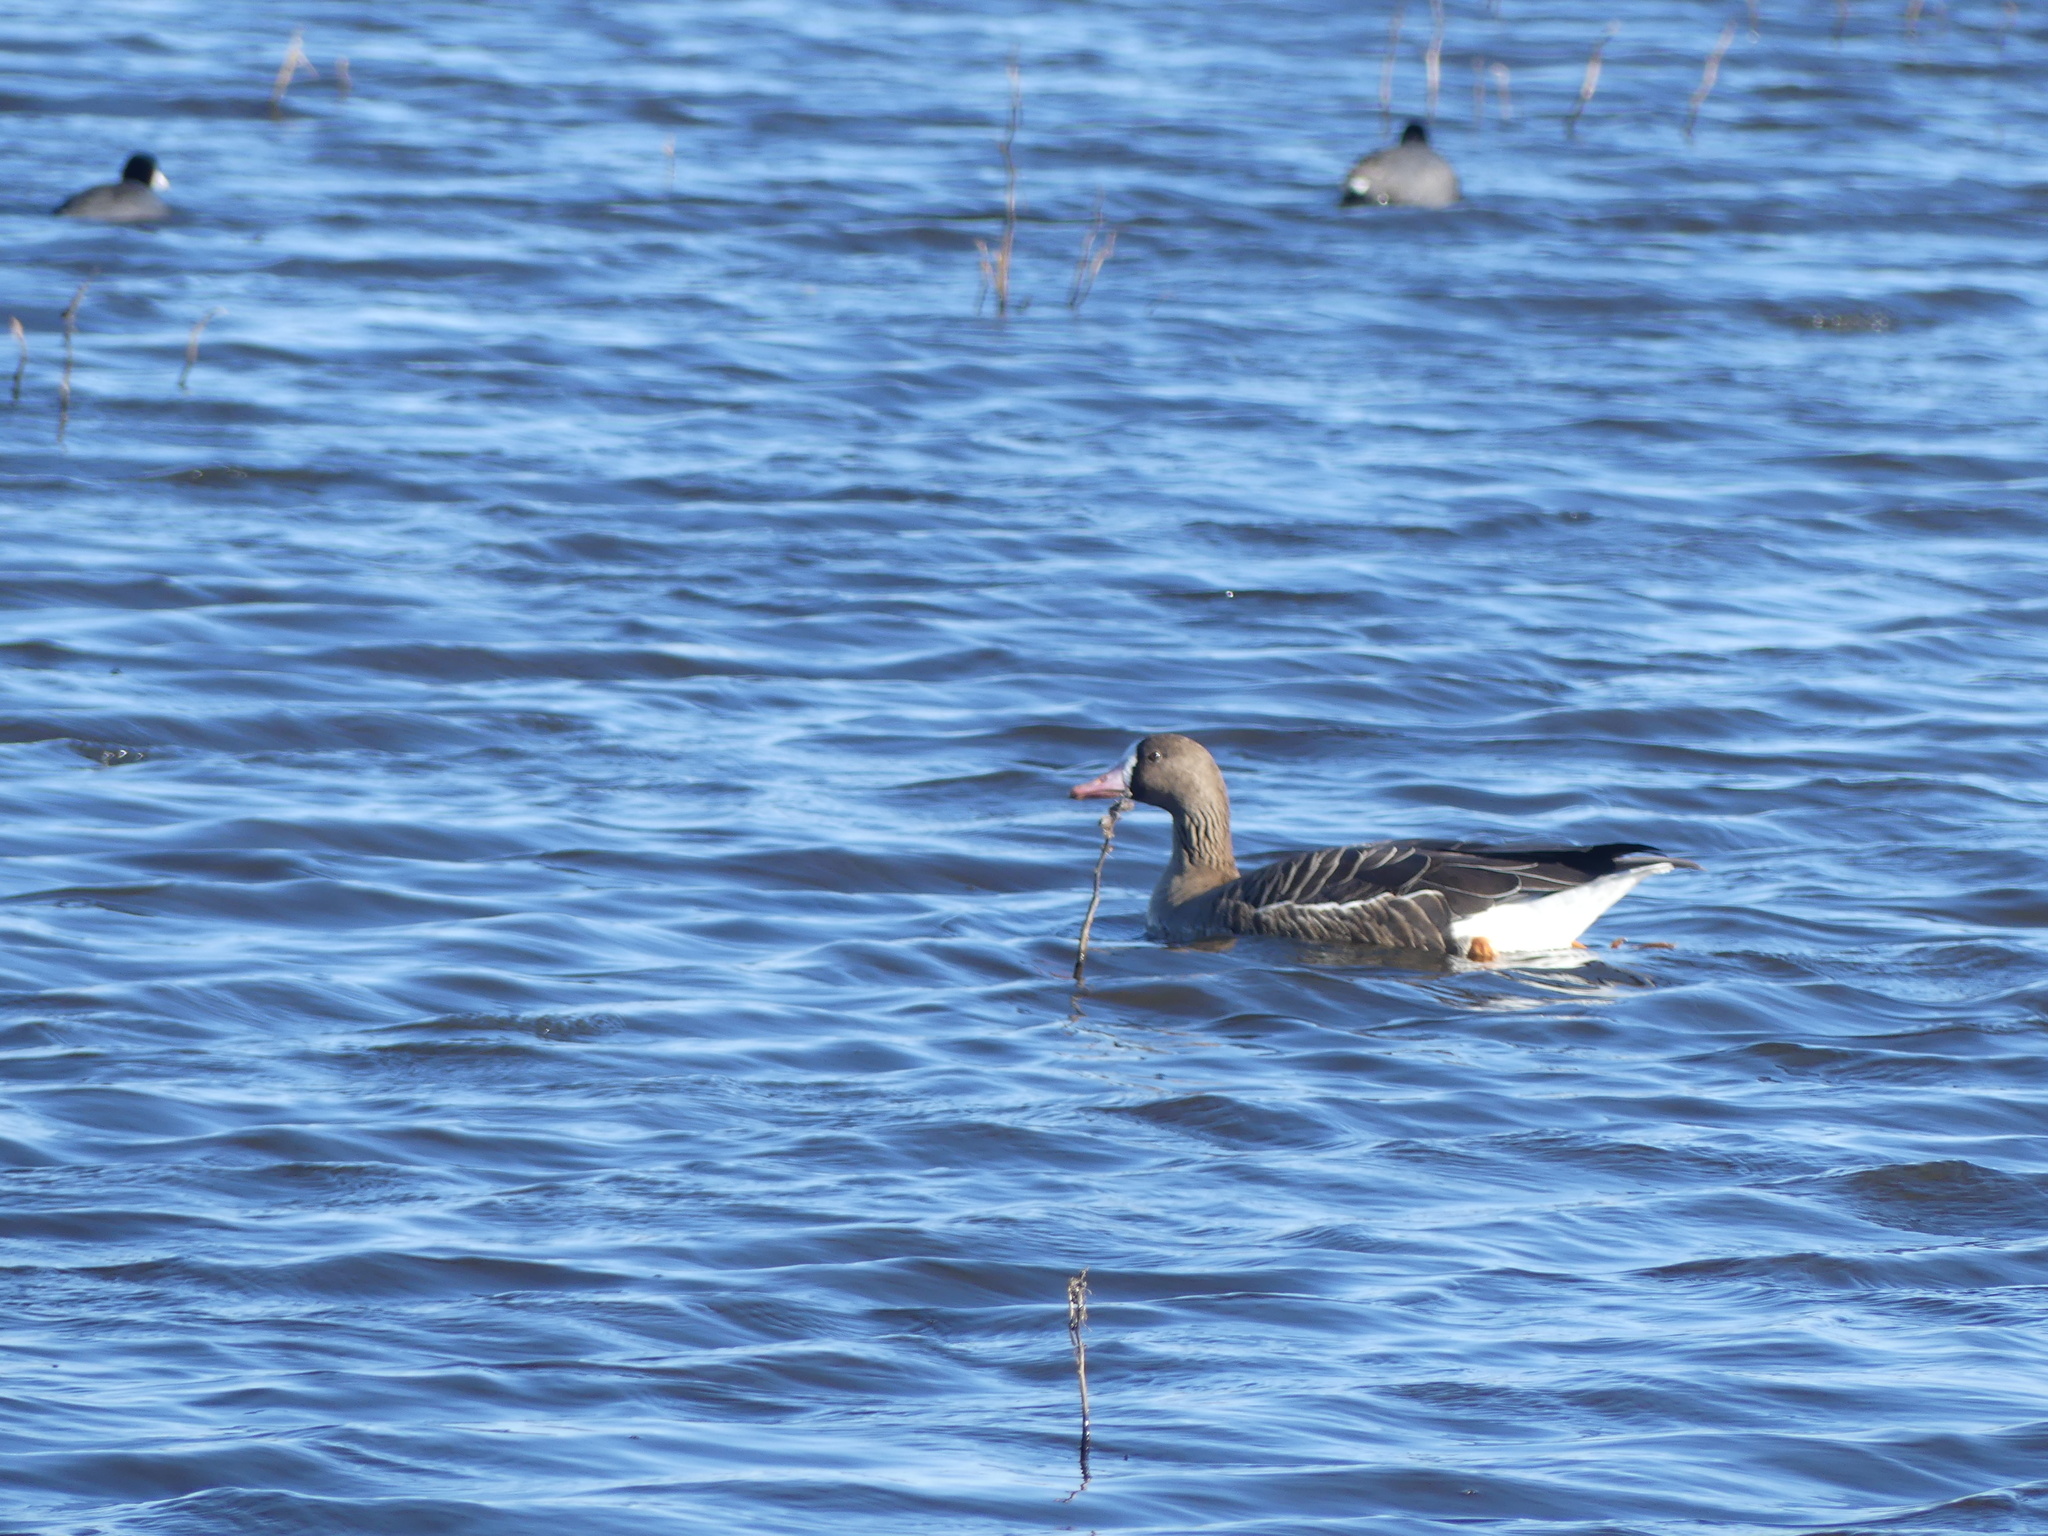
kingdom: Animalia
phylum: Chordata
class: Aves
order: Anseriformes
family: Anatidae
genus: Anser
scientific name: Anser albifrons
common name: Greater white-fronted goose
